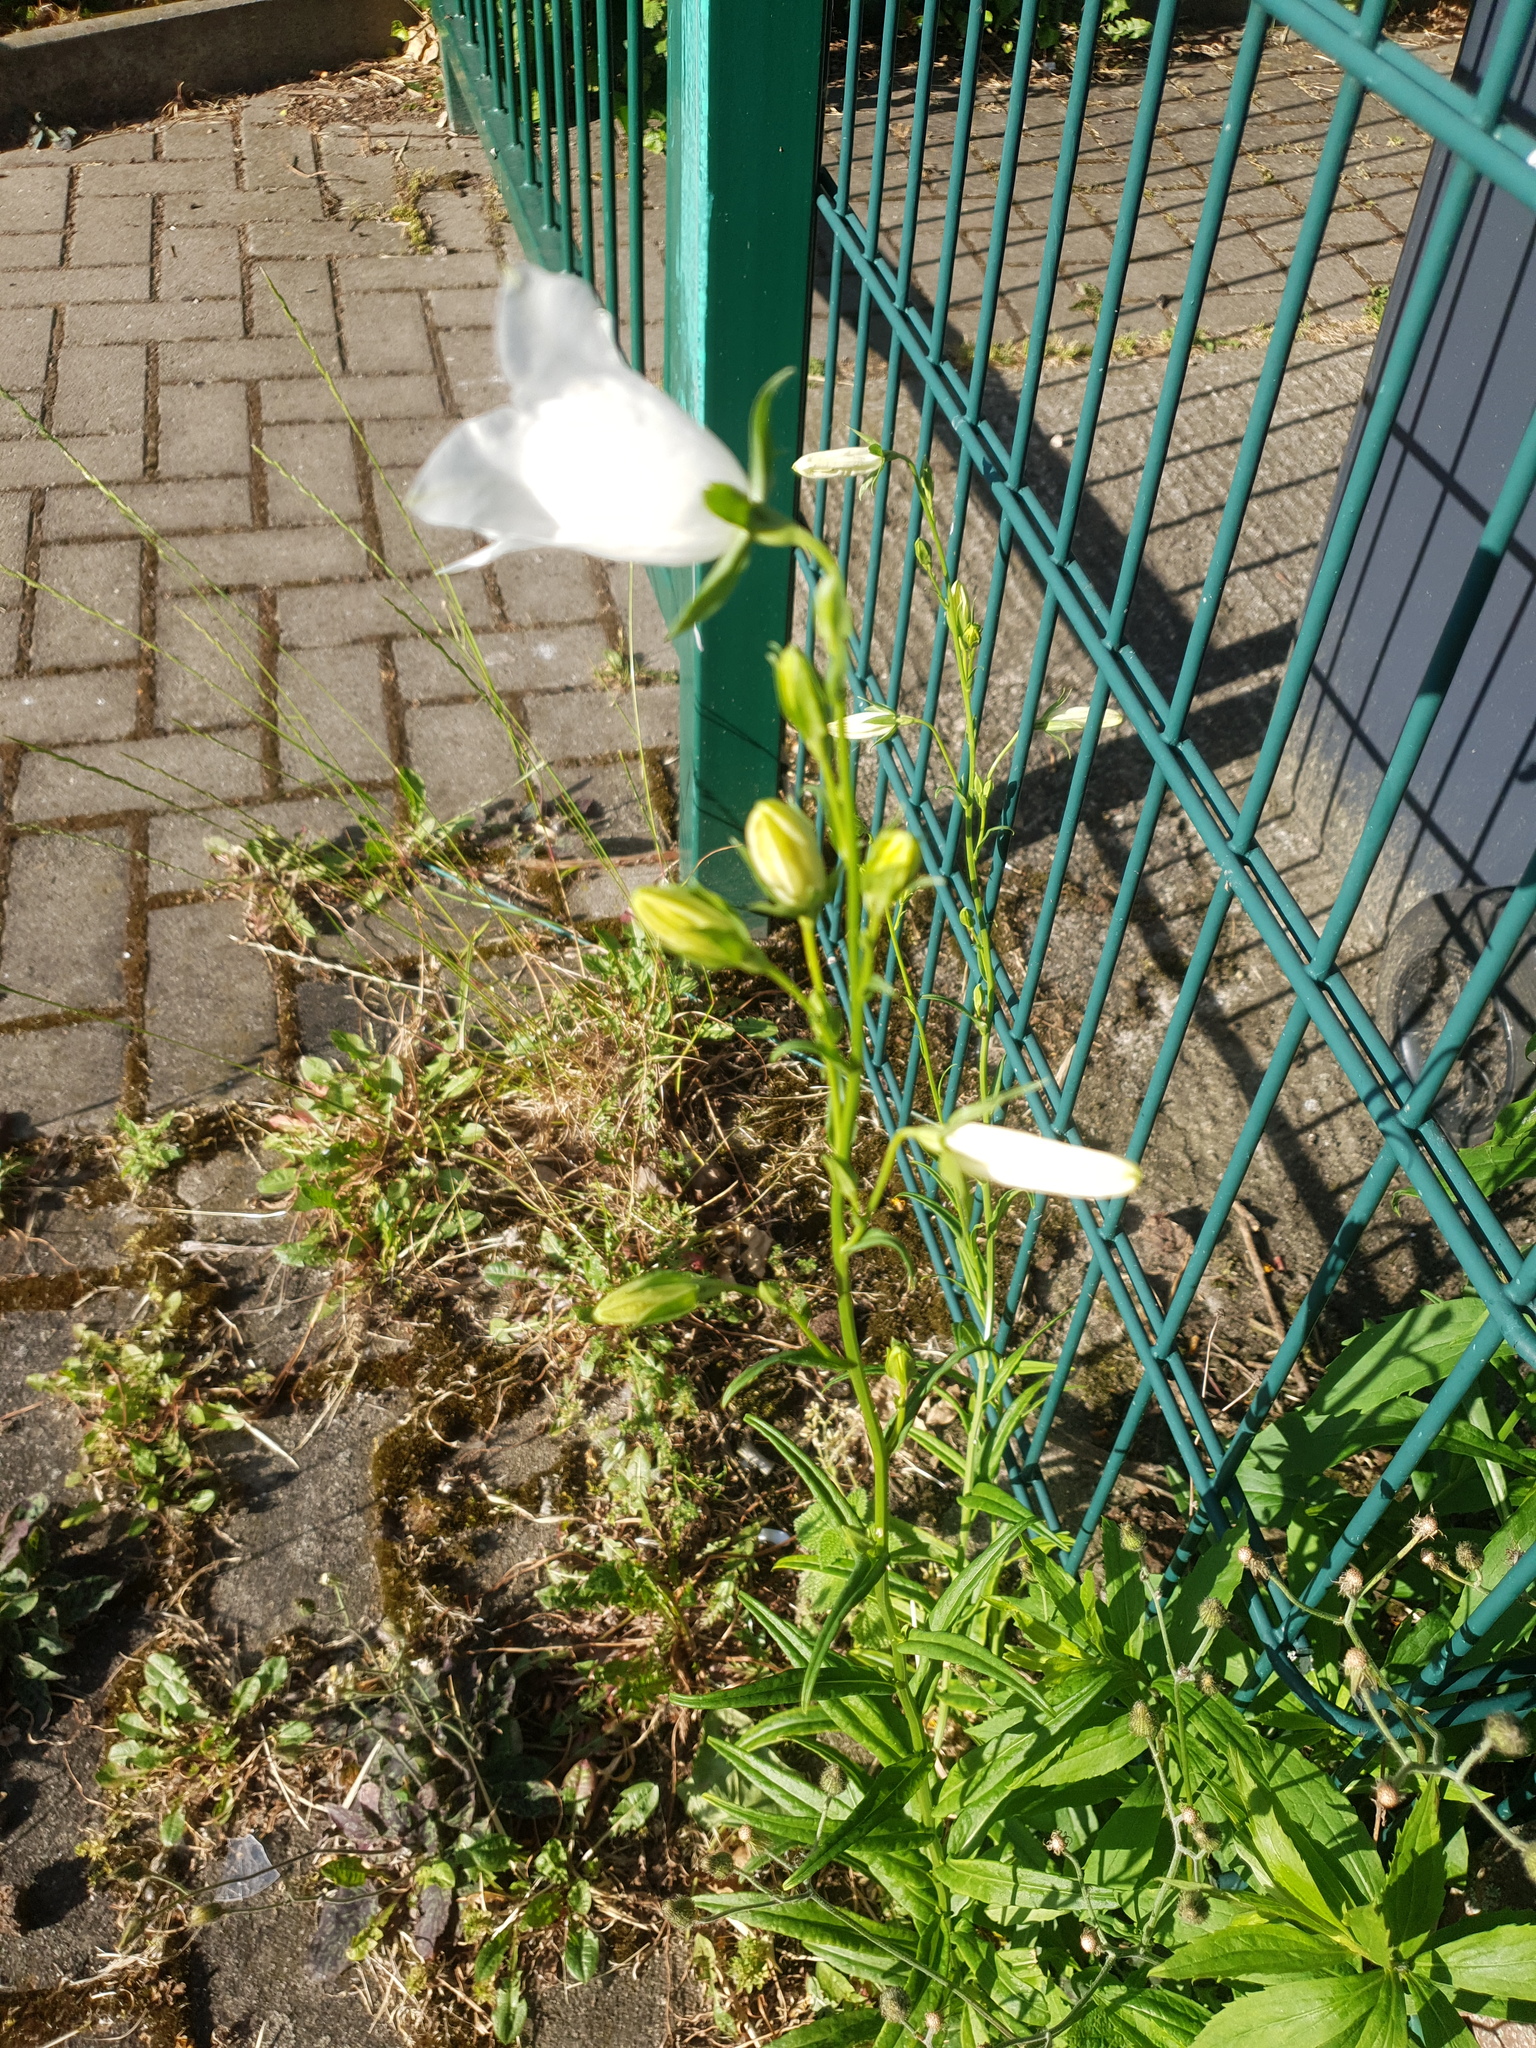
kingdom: Plantae
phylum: Tracheophyta
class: Magnoliopsida
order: Asterales
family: Campanulaceae
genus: Campanula
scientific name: Campanula persicifolia
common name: Peach-leaved bellflower
